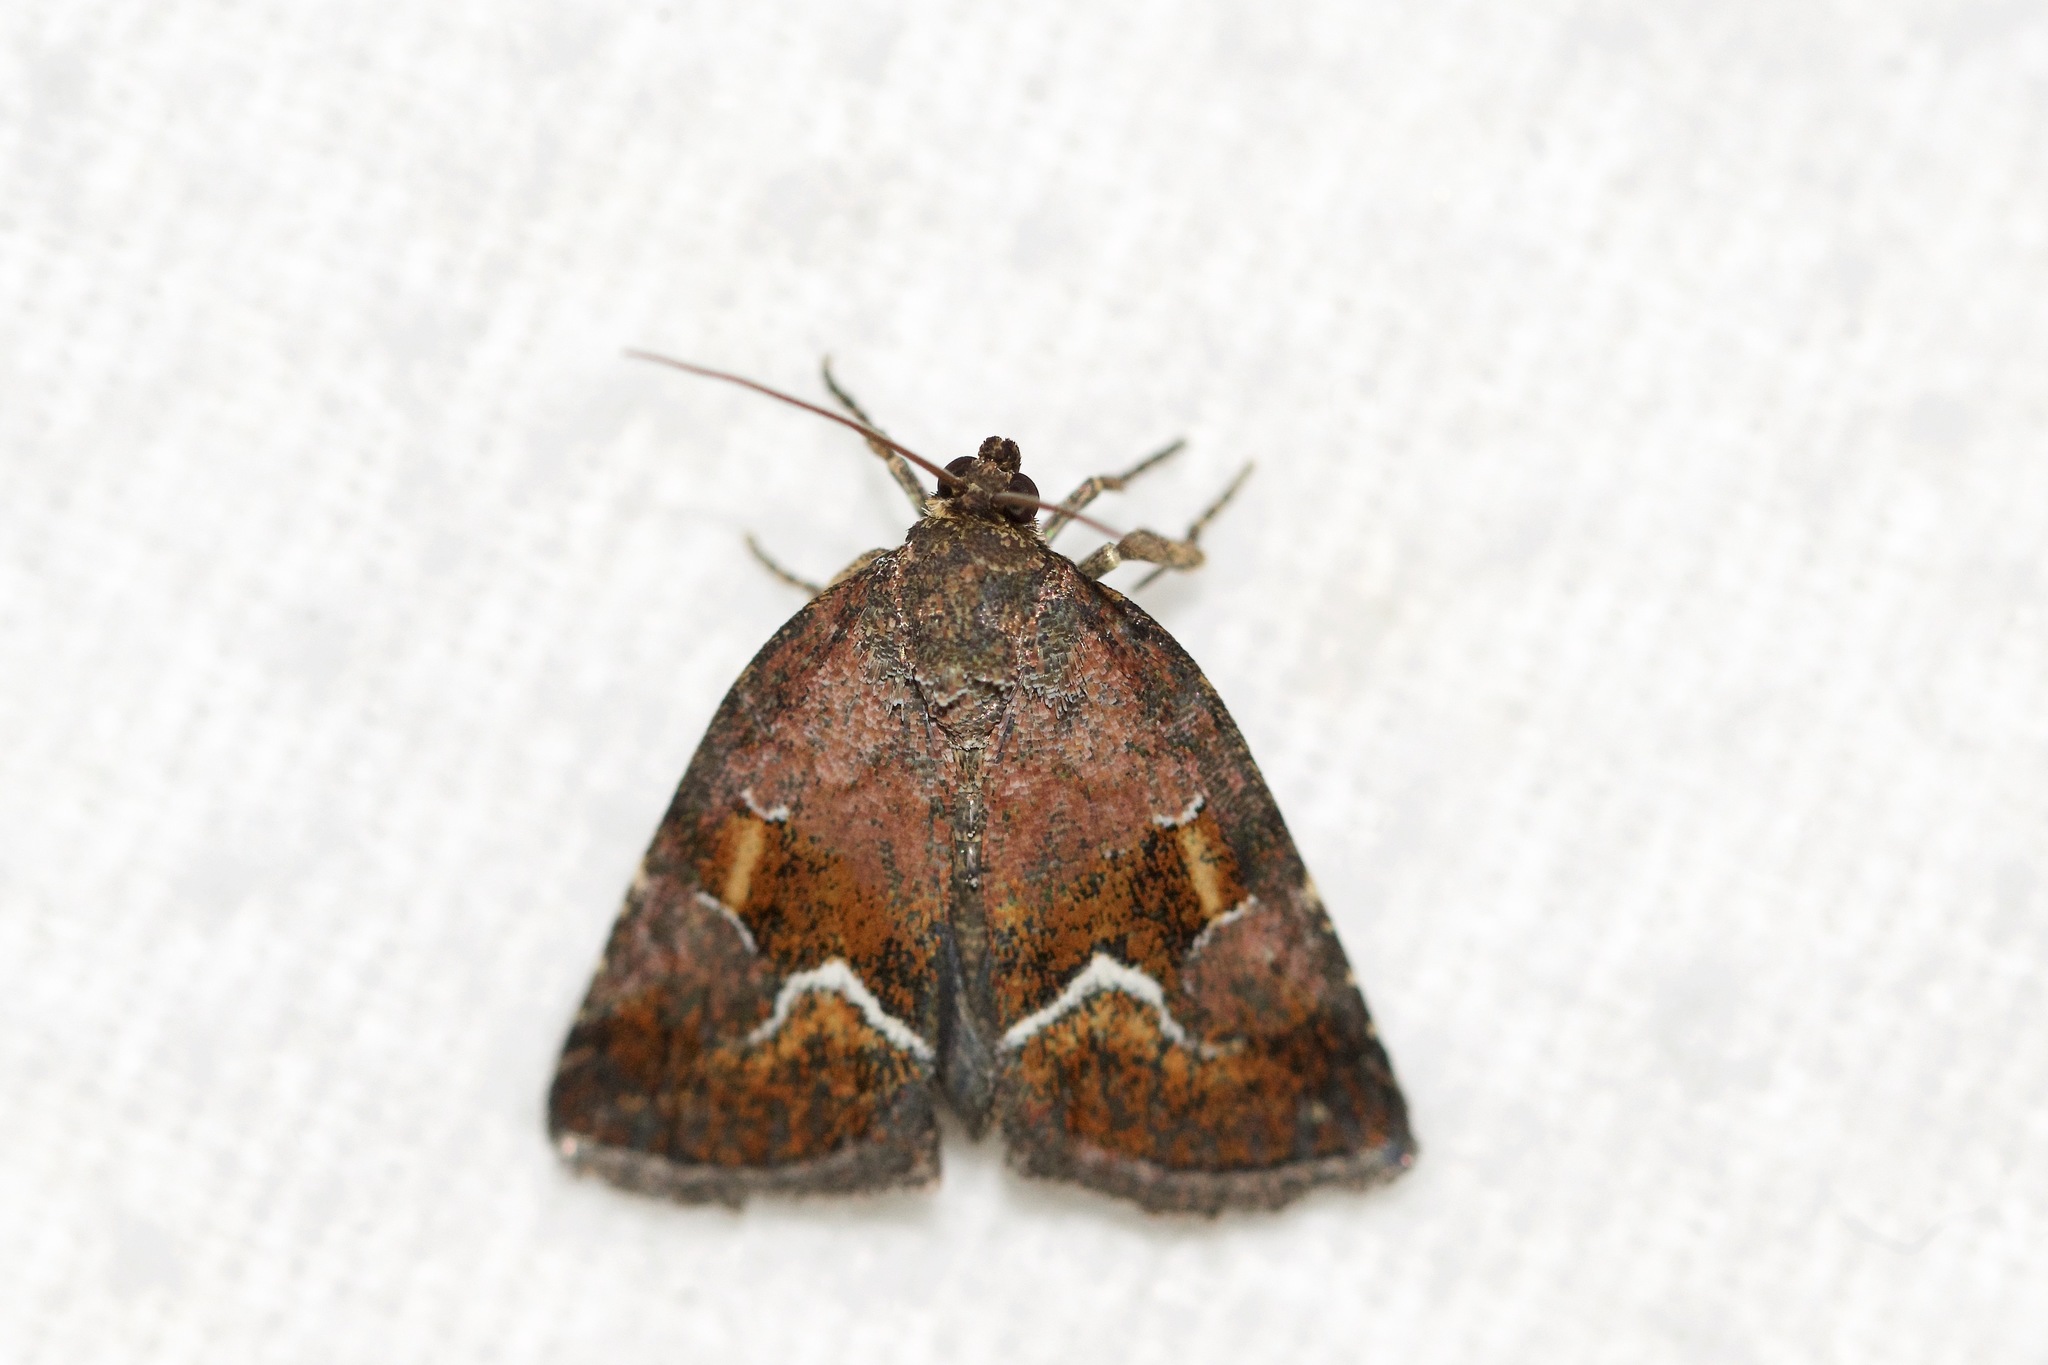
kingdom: Animalia
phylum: Arthropoda
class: Insecta
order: Lepidoptera
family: Noctuidae
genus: Deltote
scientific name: Deltote bellicula
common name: Bog glyph
